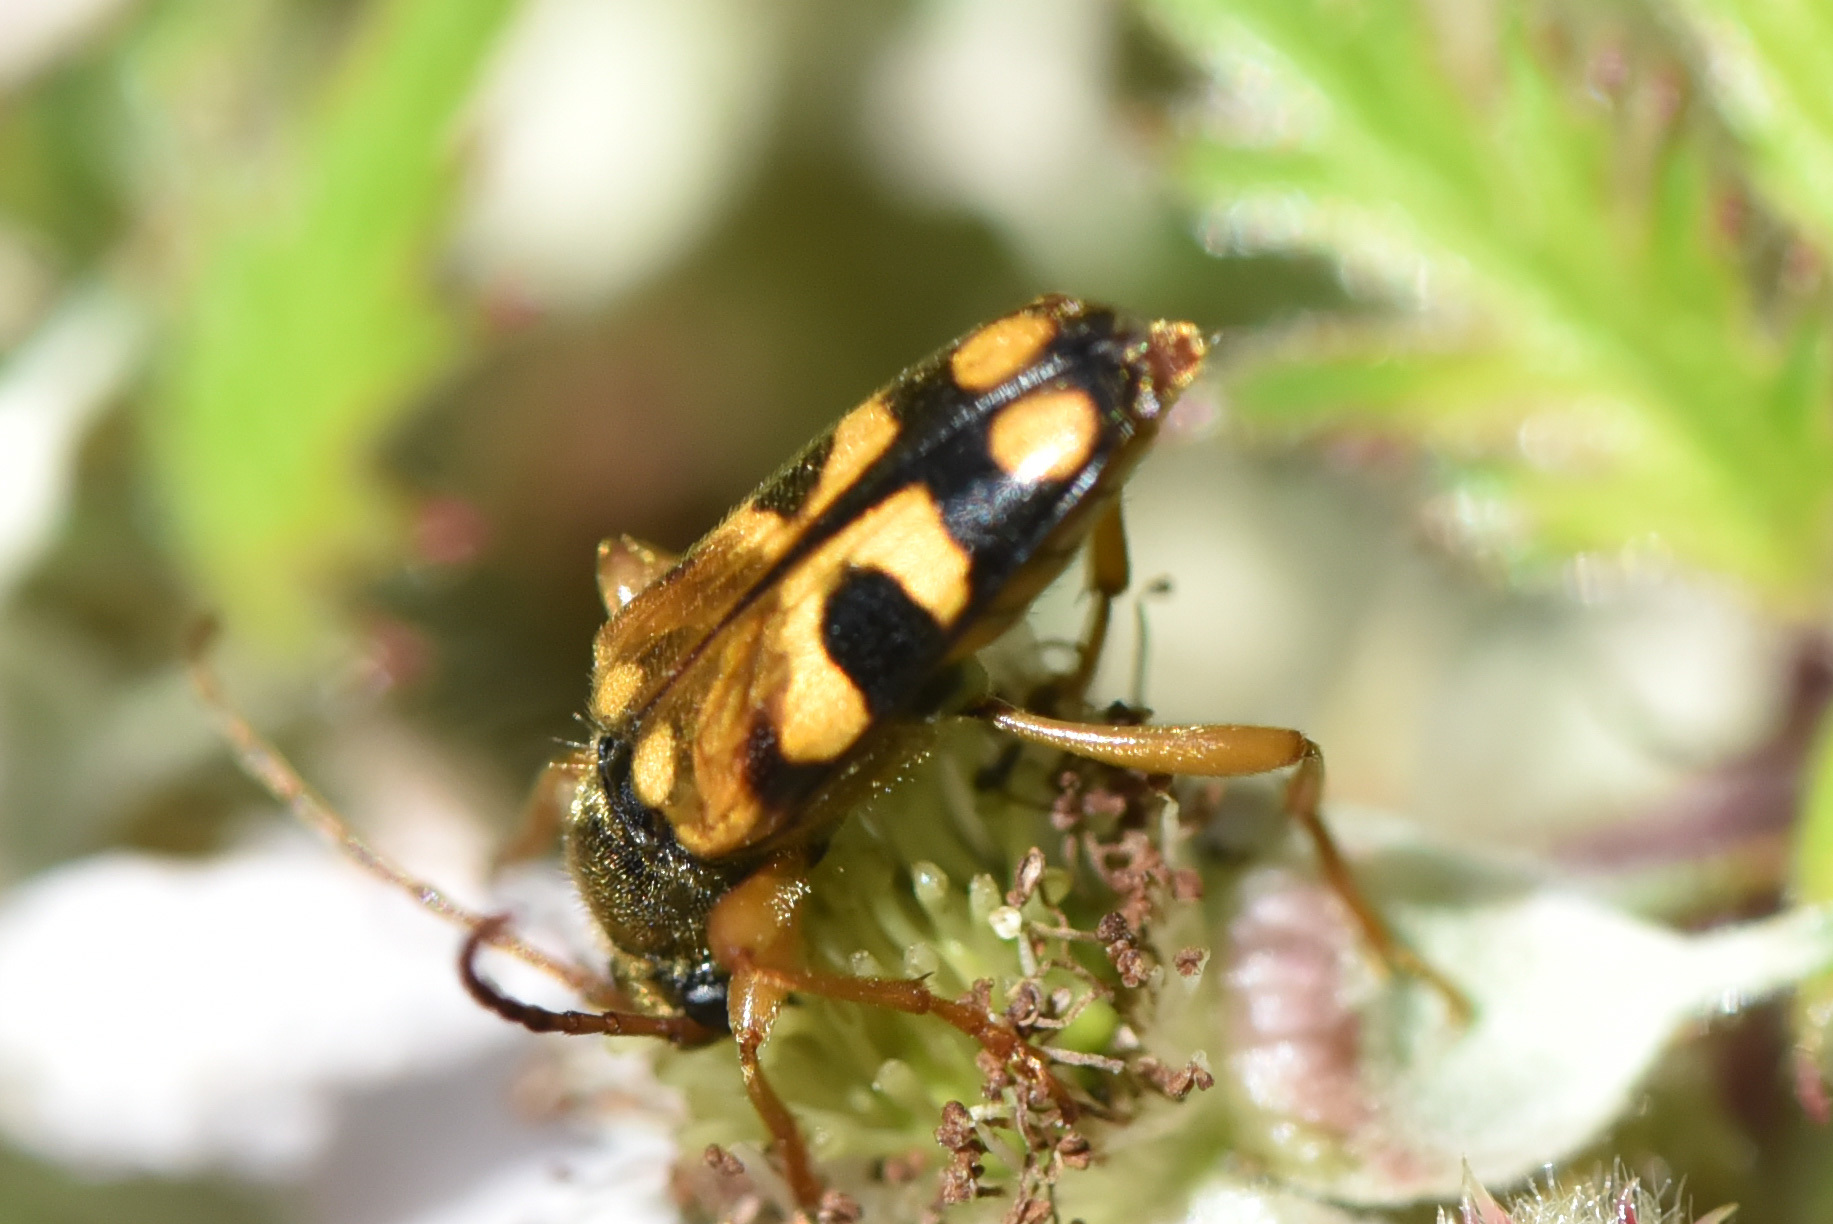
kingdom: Animalia
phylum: Arthropoda
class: Insecta
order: Coleoptera
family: Cerambycidae
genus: Xestoleptura
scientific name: Xestoleptura crassipes
